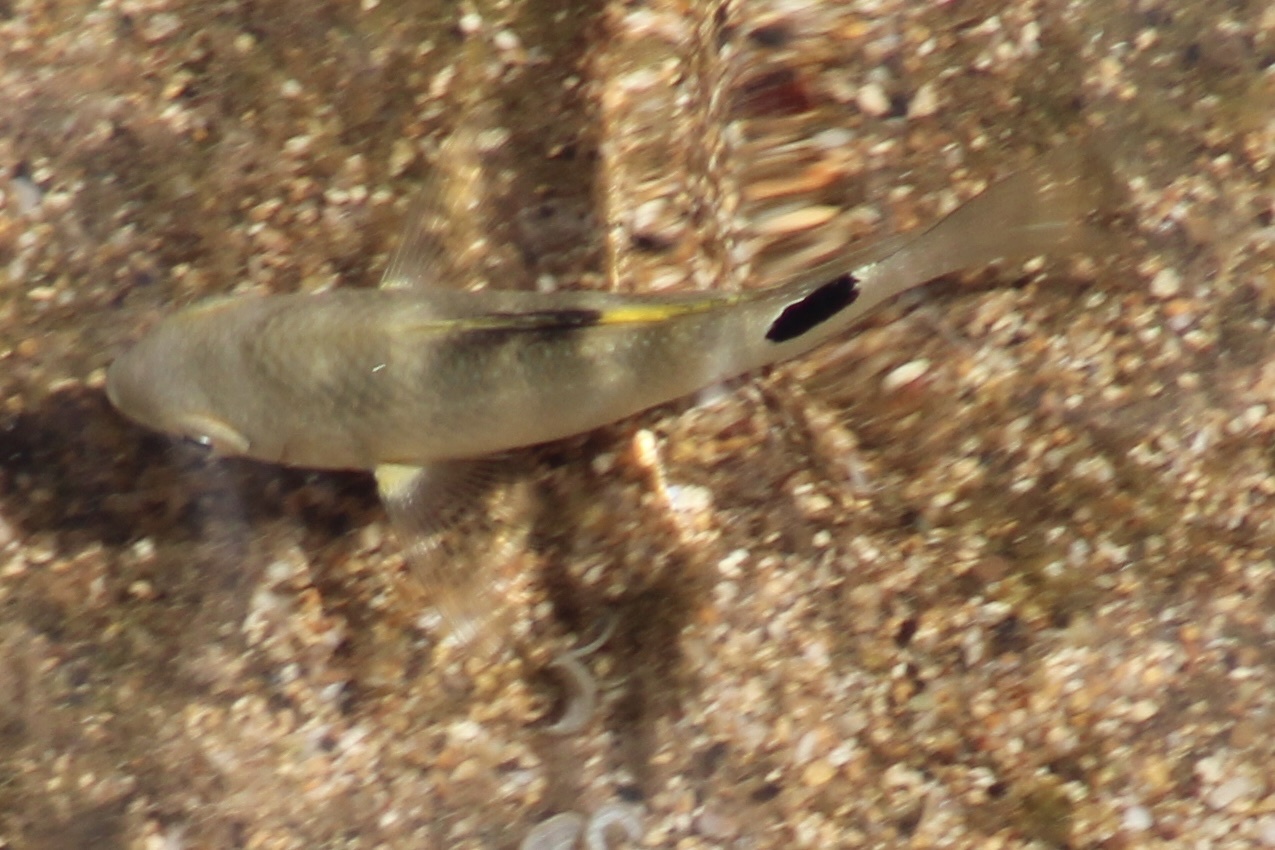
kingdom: Animalia
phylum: Chordata
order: Perciformes
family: Pomacentridae
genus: Abudefduf
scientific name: Abudefduf sordidus
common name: Blackspot sergeant
